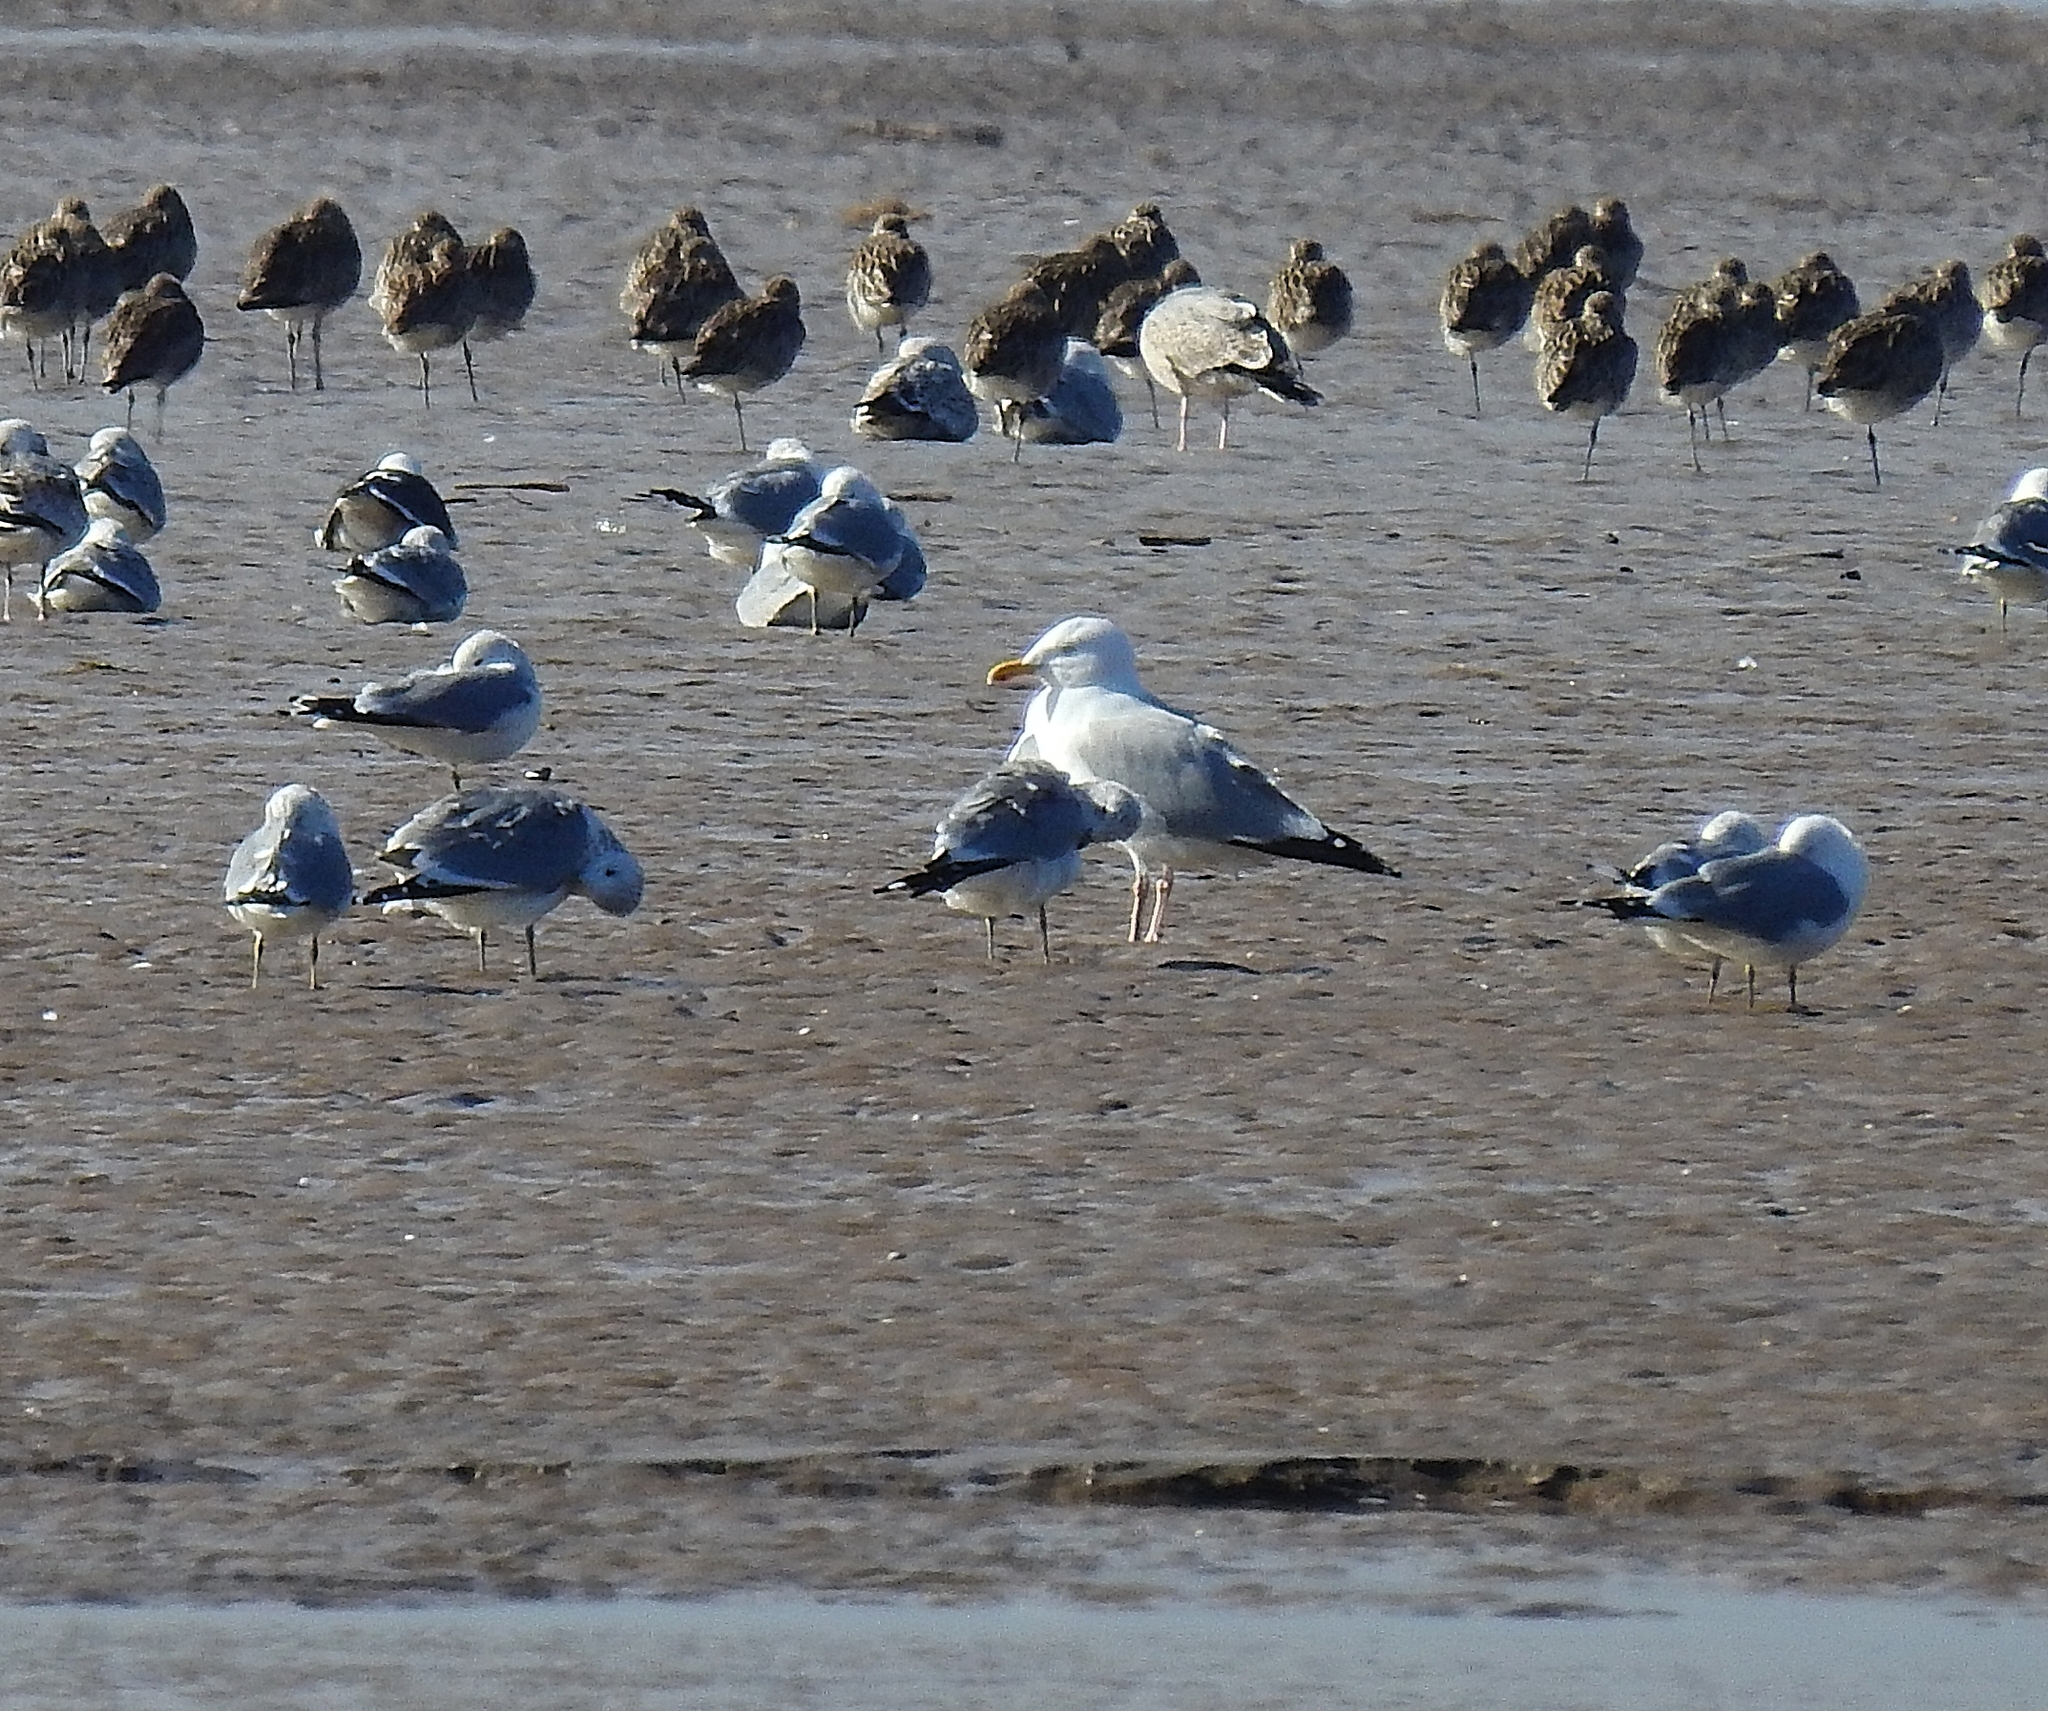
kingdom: Animalia
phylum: Chordata
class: Aves
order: Charadriiformes
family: Laridae
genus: Larus
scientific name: Larus fuscus
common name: Lesser black-backed gull
